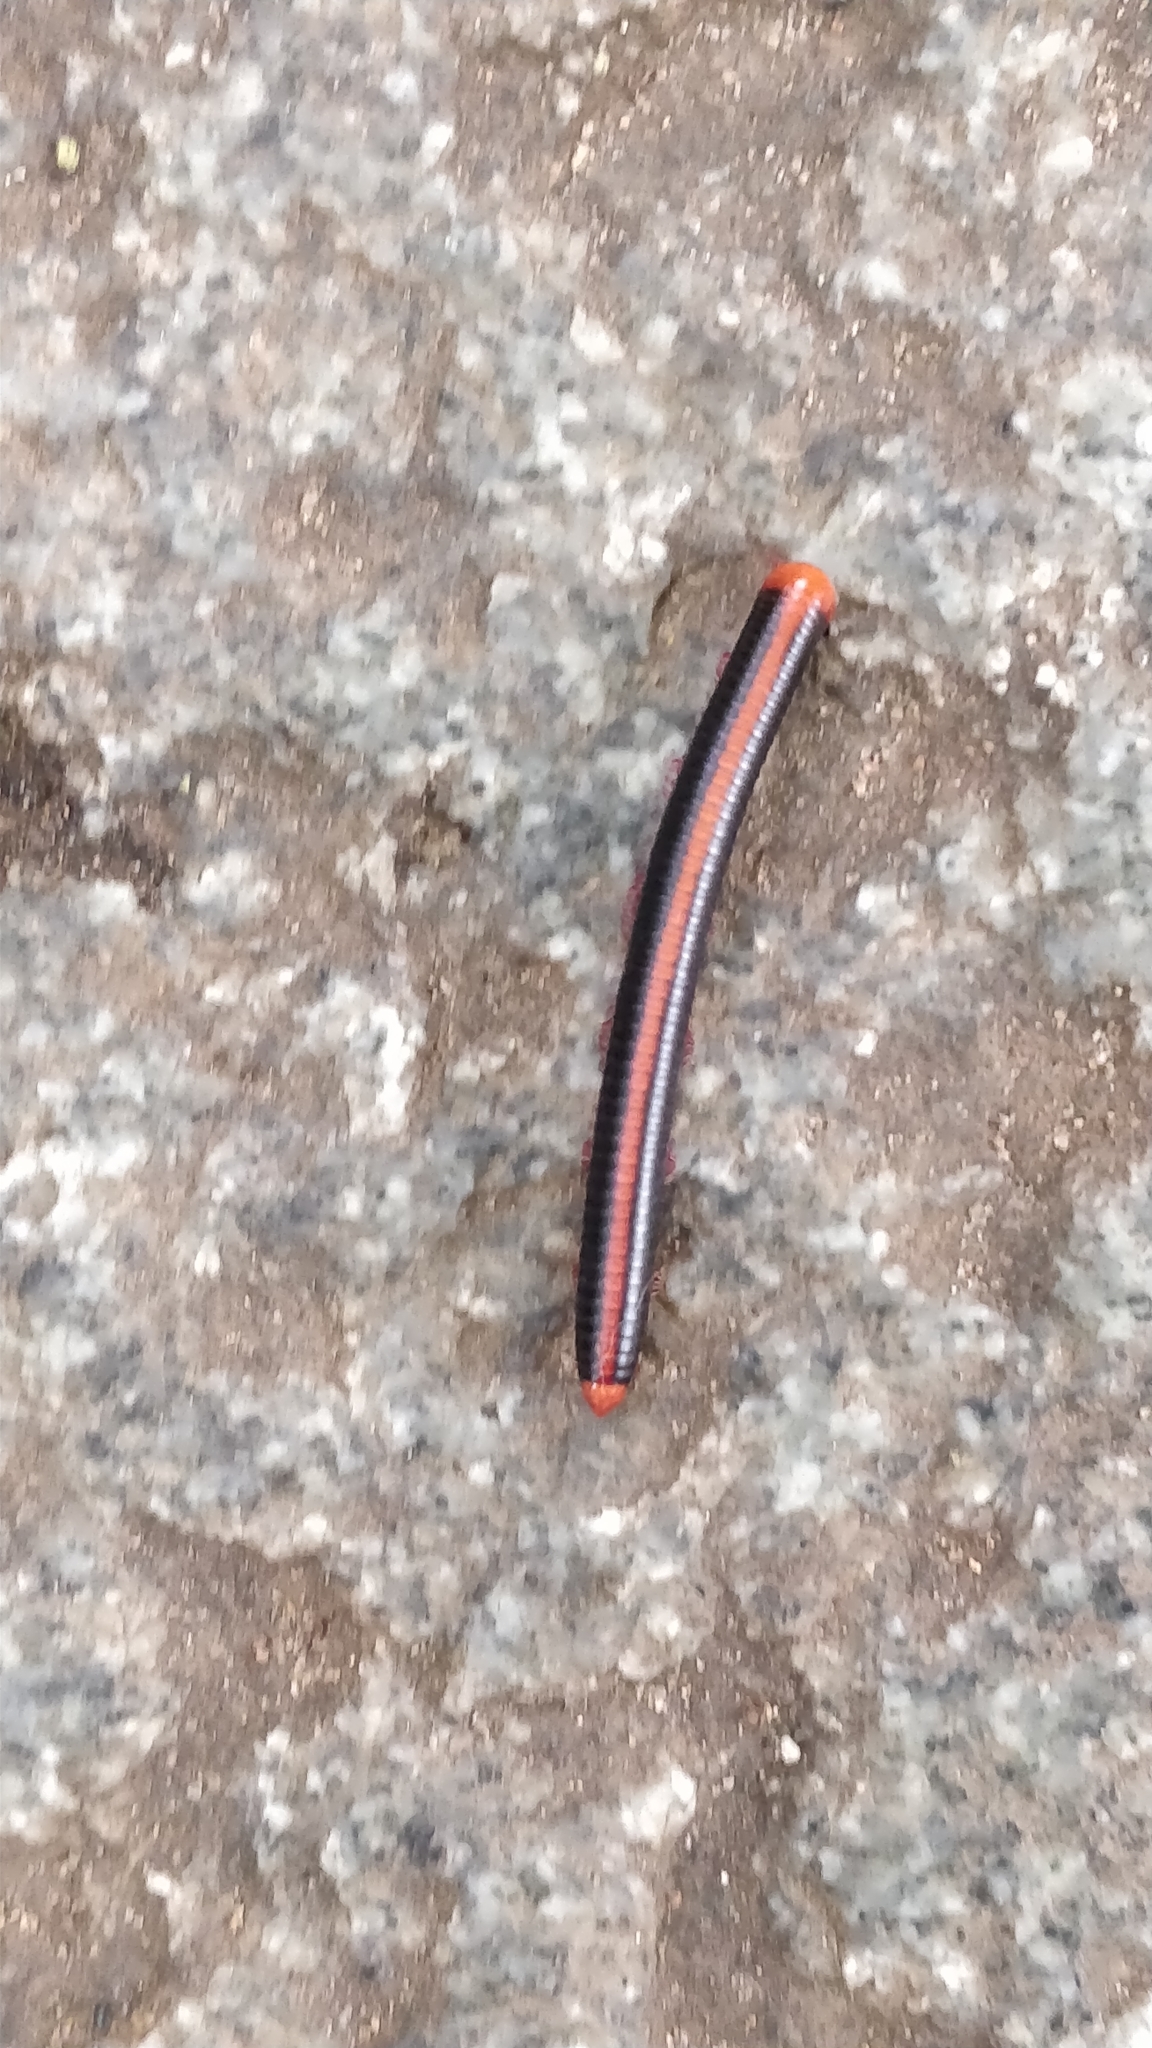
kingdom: Animalia
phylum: Arthropoda
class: Diplopoda
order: Spirobolida
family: Pachybolidae
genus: Xenobolus
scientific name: Xenobolus carnifex
